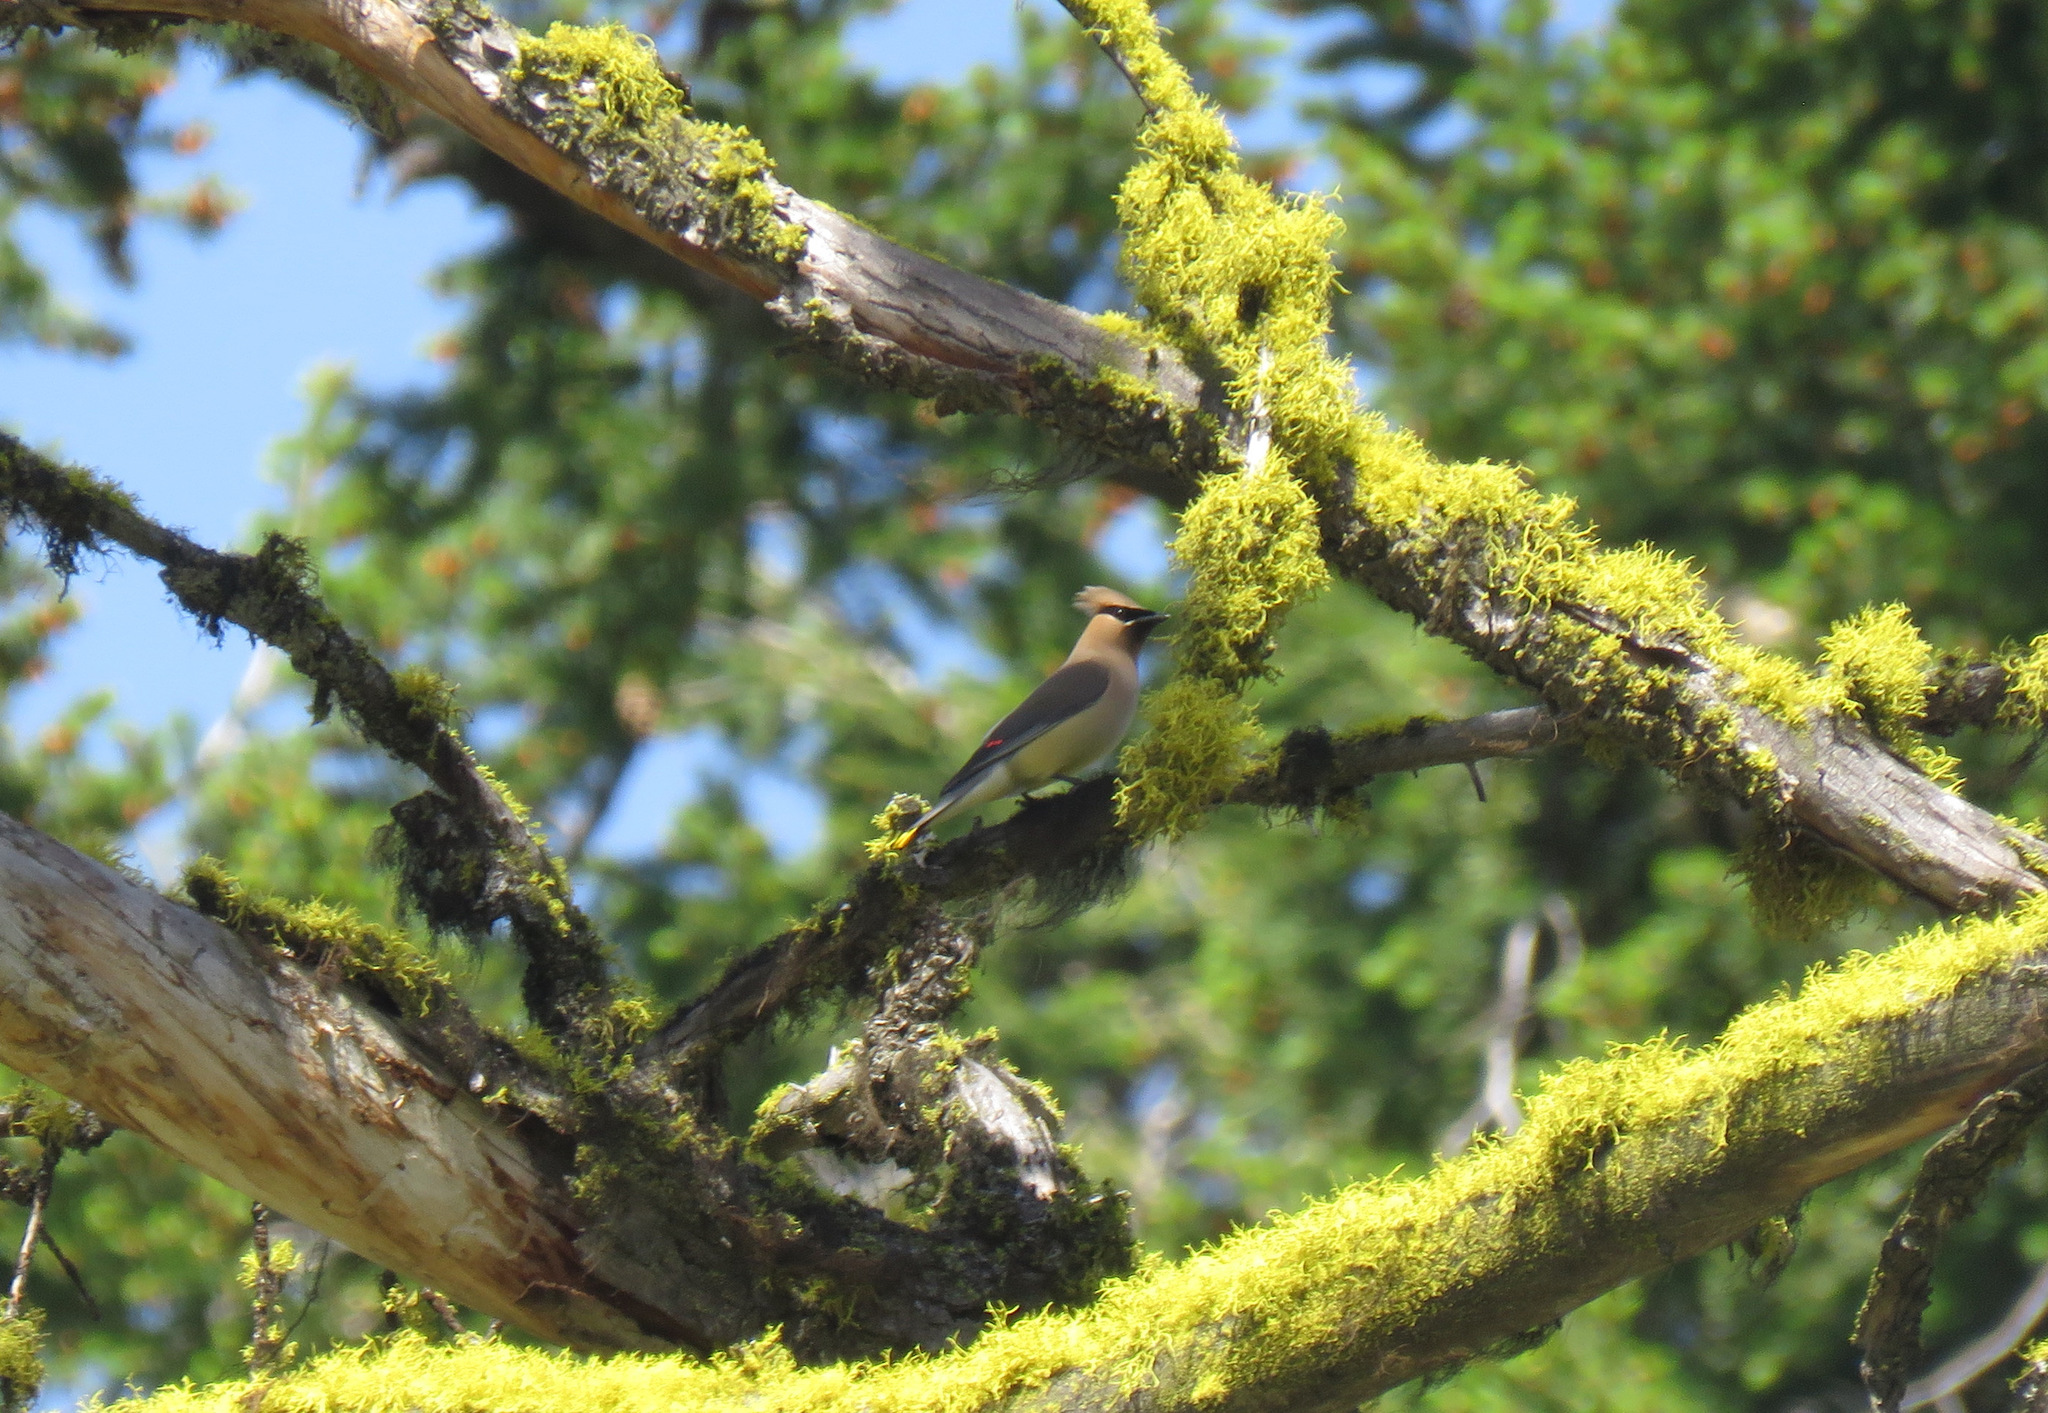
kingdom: Animalia
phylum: Chordata
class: Aves
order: Passeriformes
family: Bombycillidae
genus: Bombycilla
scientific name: Bombycilla cedrorum
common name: Cedar waxwing
